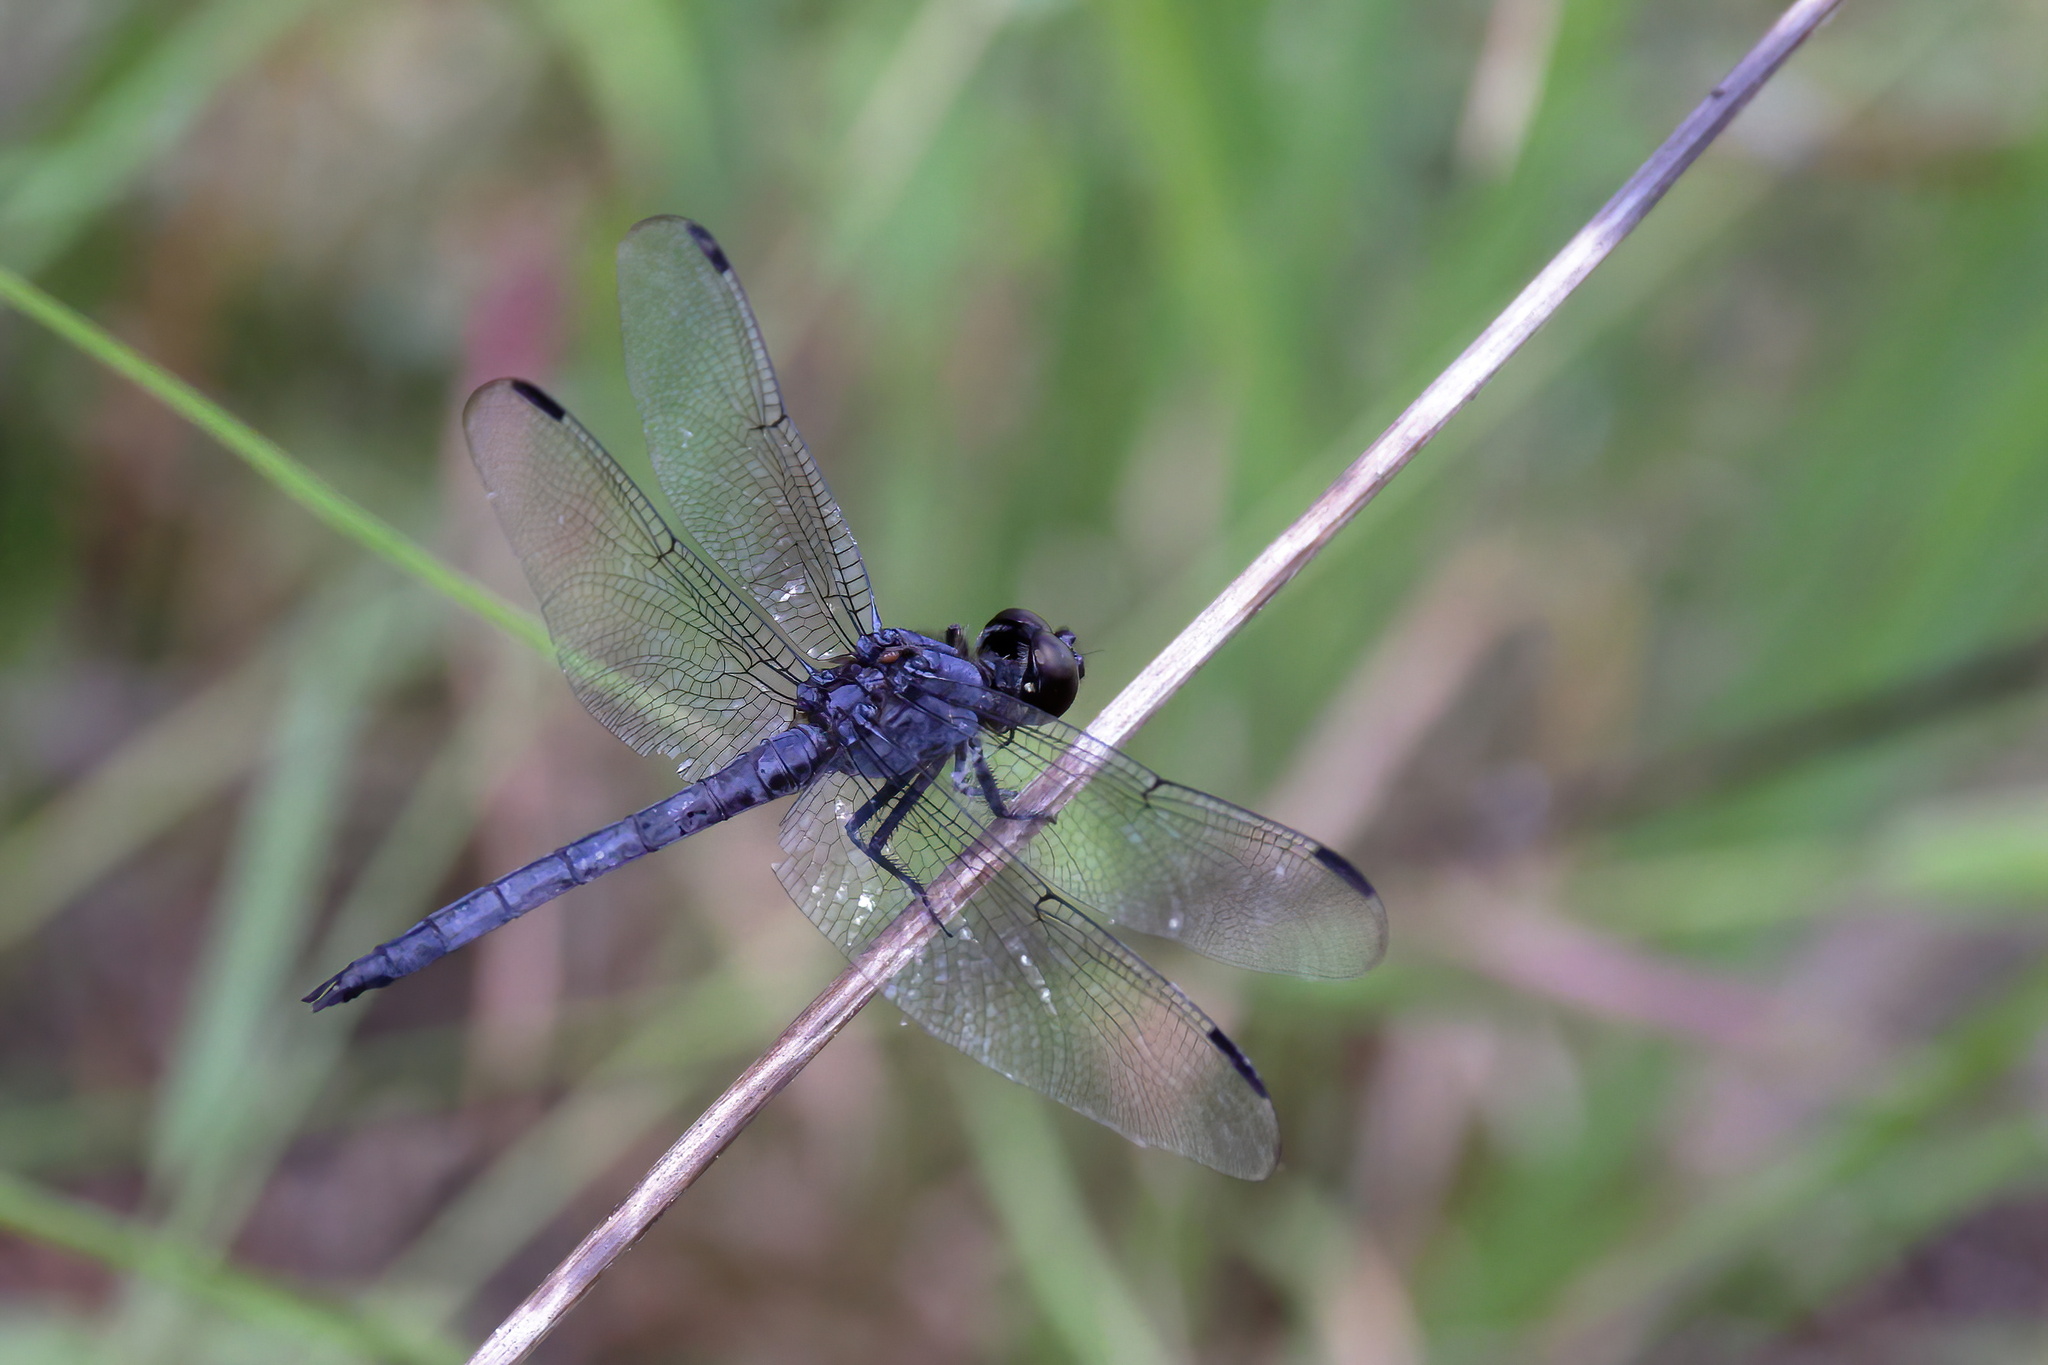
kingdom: Animalia
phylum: Arthropoda
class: Insecta
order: Odonata
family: Libellulidae
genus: Libellula
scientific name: Libellula incesta
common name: Slaty skimmer
